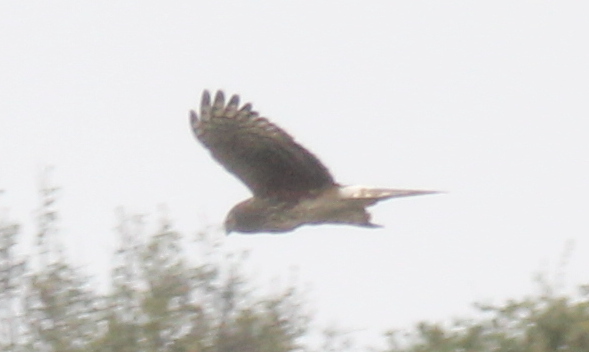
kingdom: Animalia
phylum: Chordata
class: Aves
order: Accipitriformes
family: Accipitridae
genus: Circus
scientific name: Circus cyaneus
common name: Hen harrier
